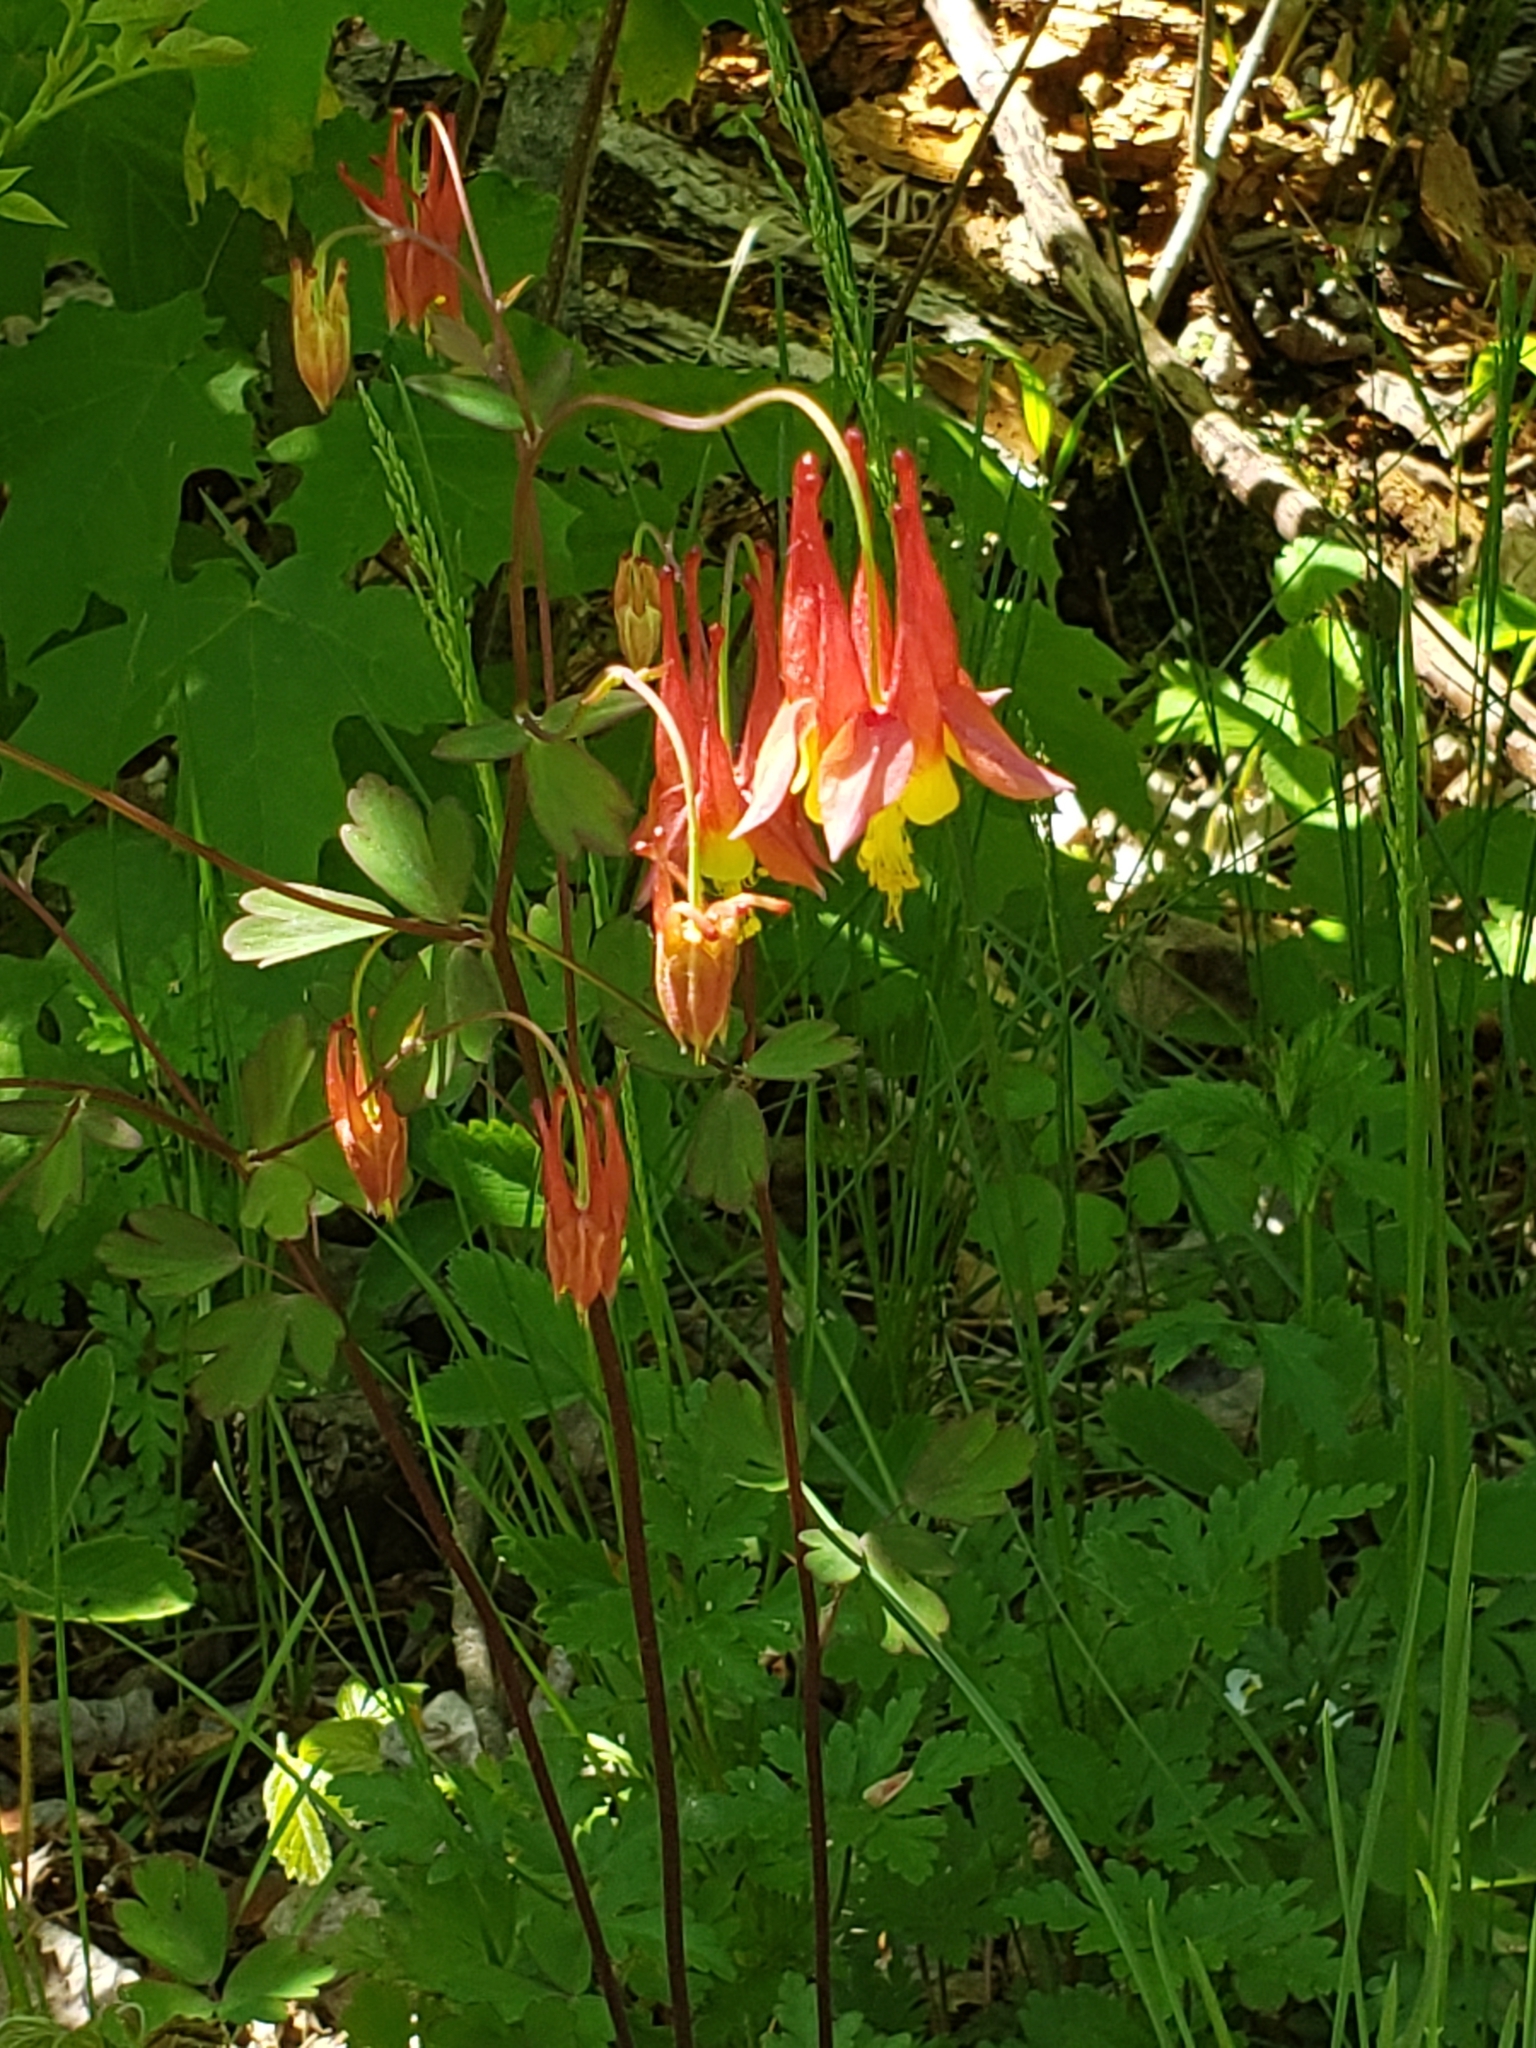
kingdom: Plantae
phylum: Tracheophyta
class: Magnoliopsida
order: Ranunculales
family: Ranunculaceae
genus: Aquilegia
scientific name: Aquilegia canadensis
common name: American columbine
